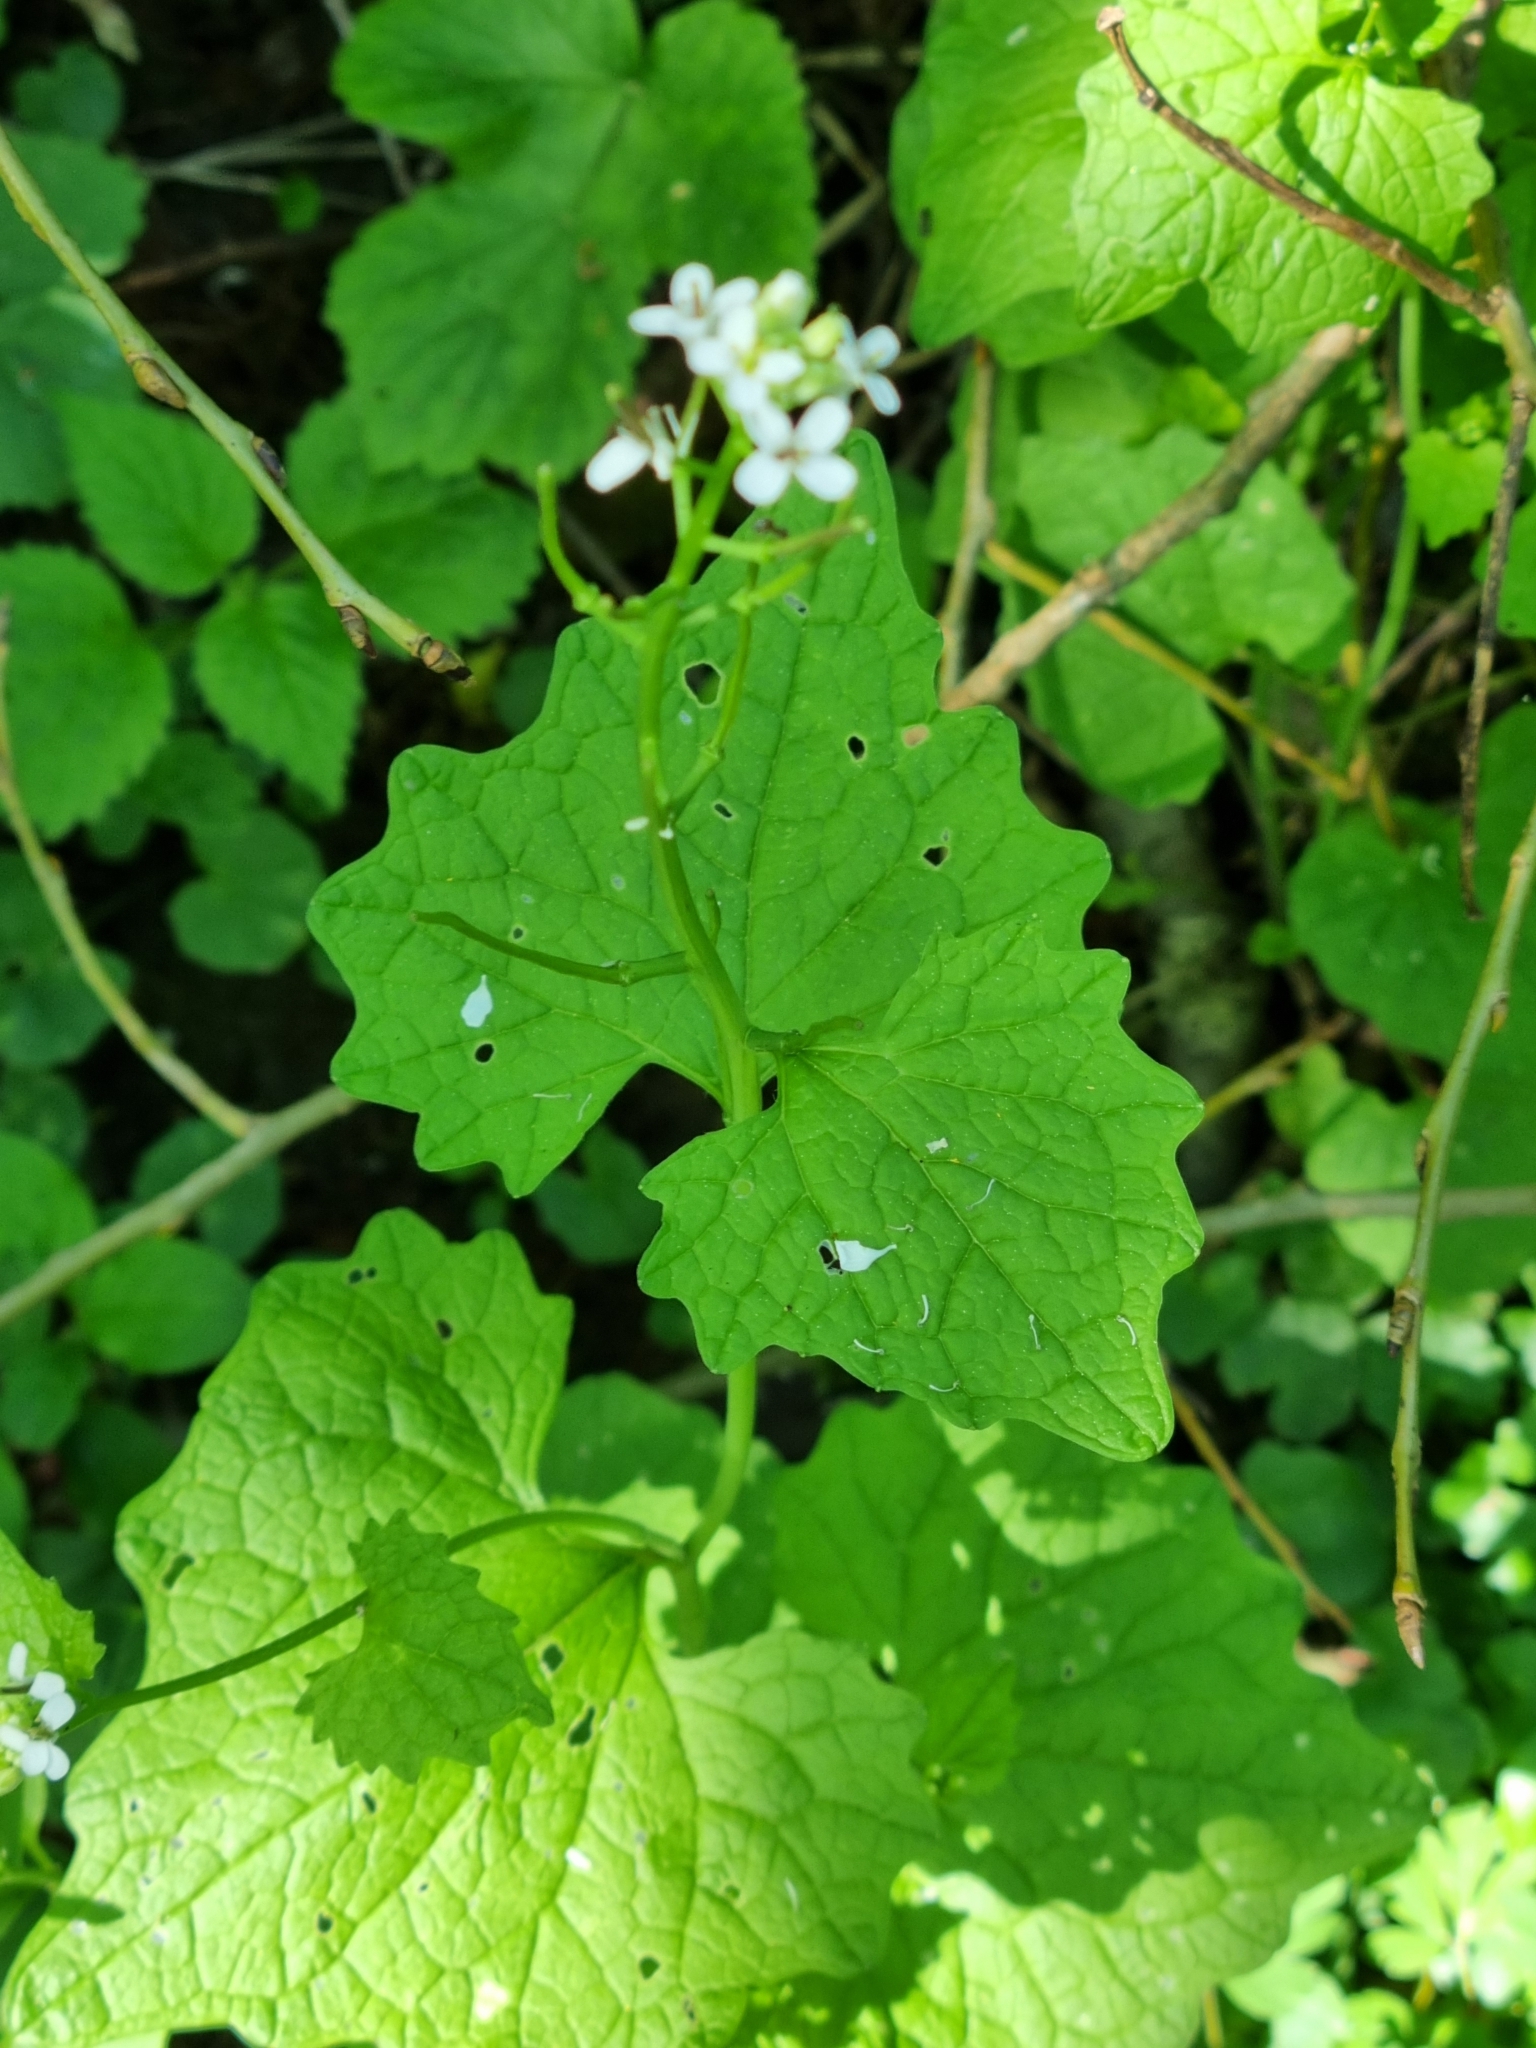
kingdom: Plantae
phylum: Tracheophyta
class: Magnoliopsida
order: Brassicales
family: Brassicaceae
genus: Alliaria
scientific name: Alliaria petiolata
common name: Garlic mustard
